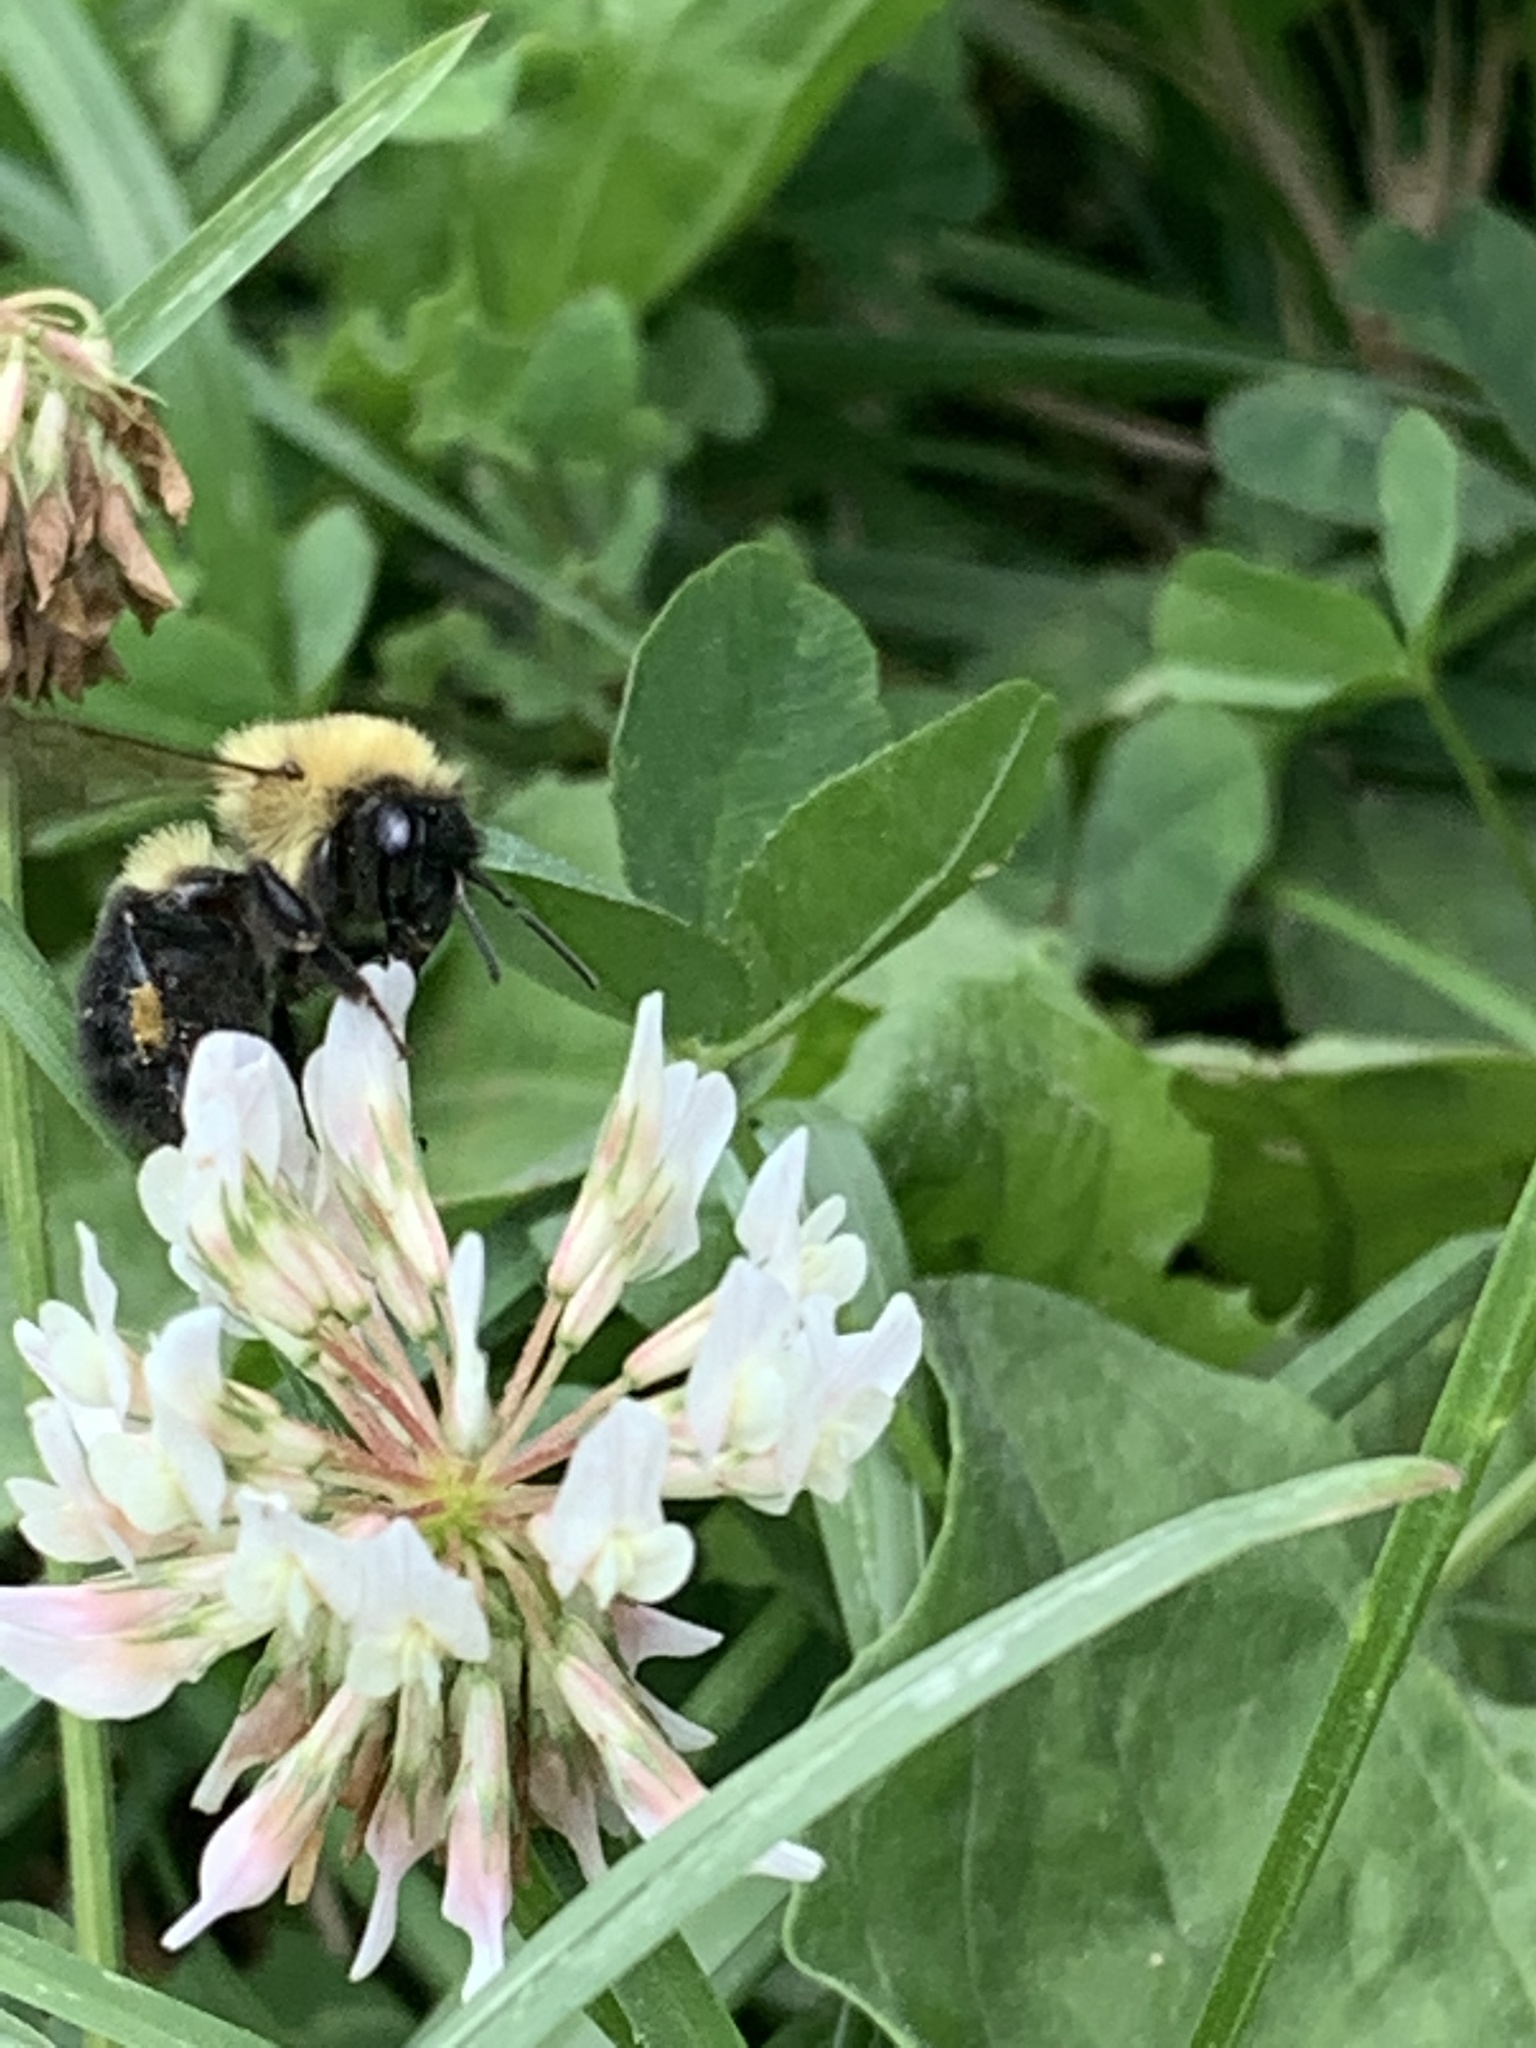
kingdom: Animalia
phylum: Arthropoda
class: Insecta
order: Hymenoptera
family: Apidae
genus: Bombus
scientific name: Bombus bimaculatus
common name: Two-spotted bumble bee
